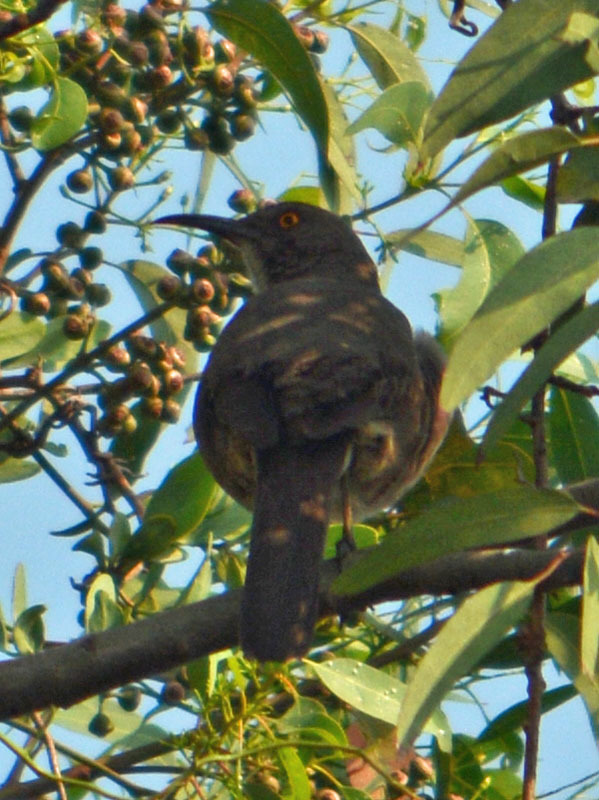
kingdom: Animalia
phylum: Chordata
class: Aves
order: Passeriformes
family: Mimidae
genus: Toxostoma
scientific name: Toxostoma curvirostre
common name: Curve-billed thrasher
